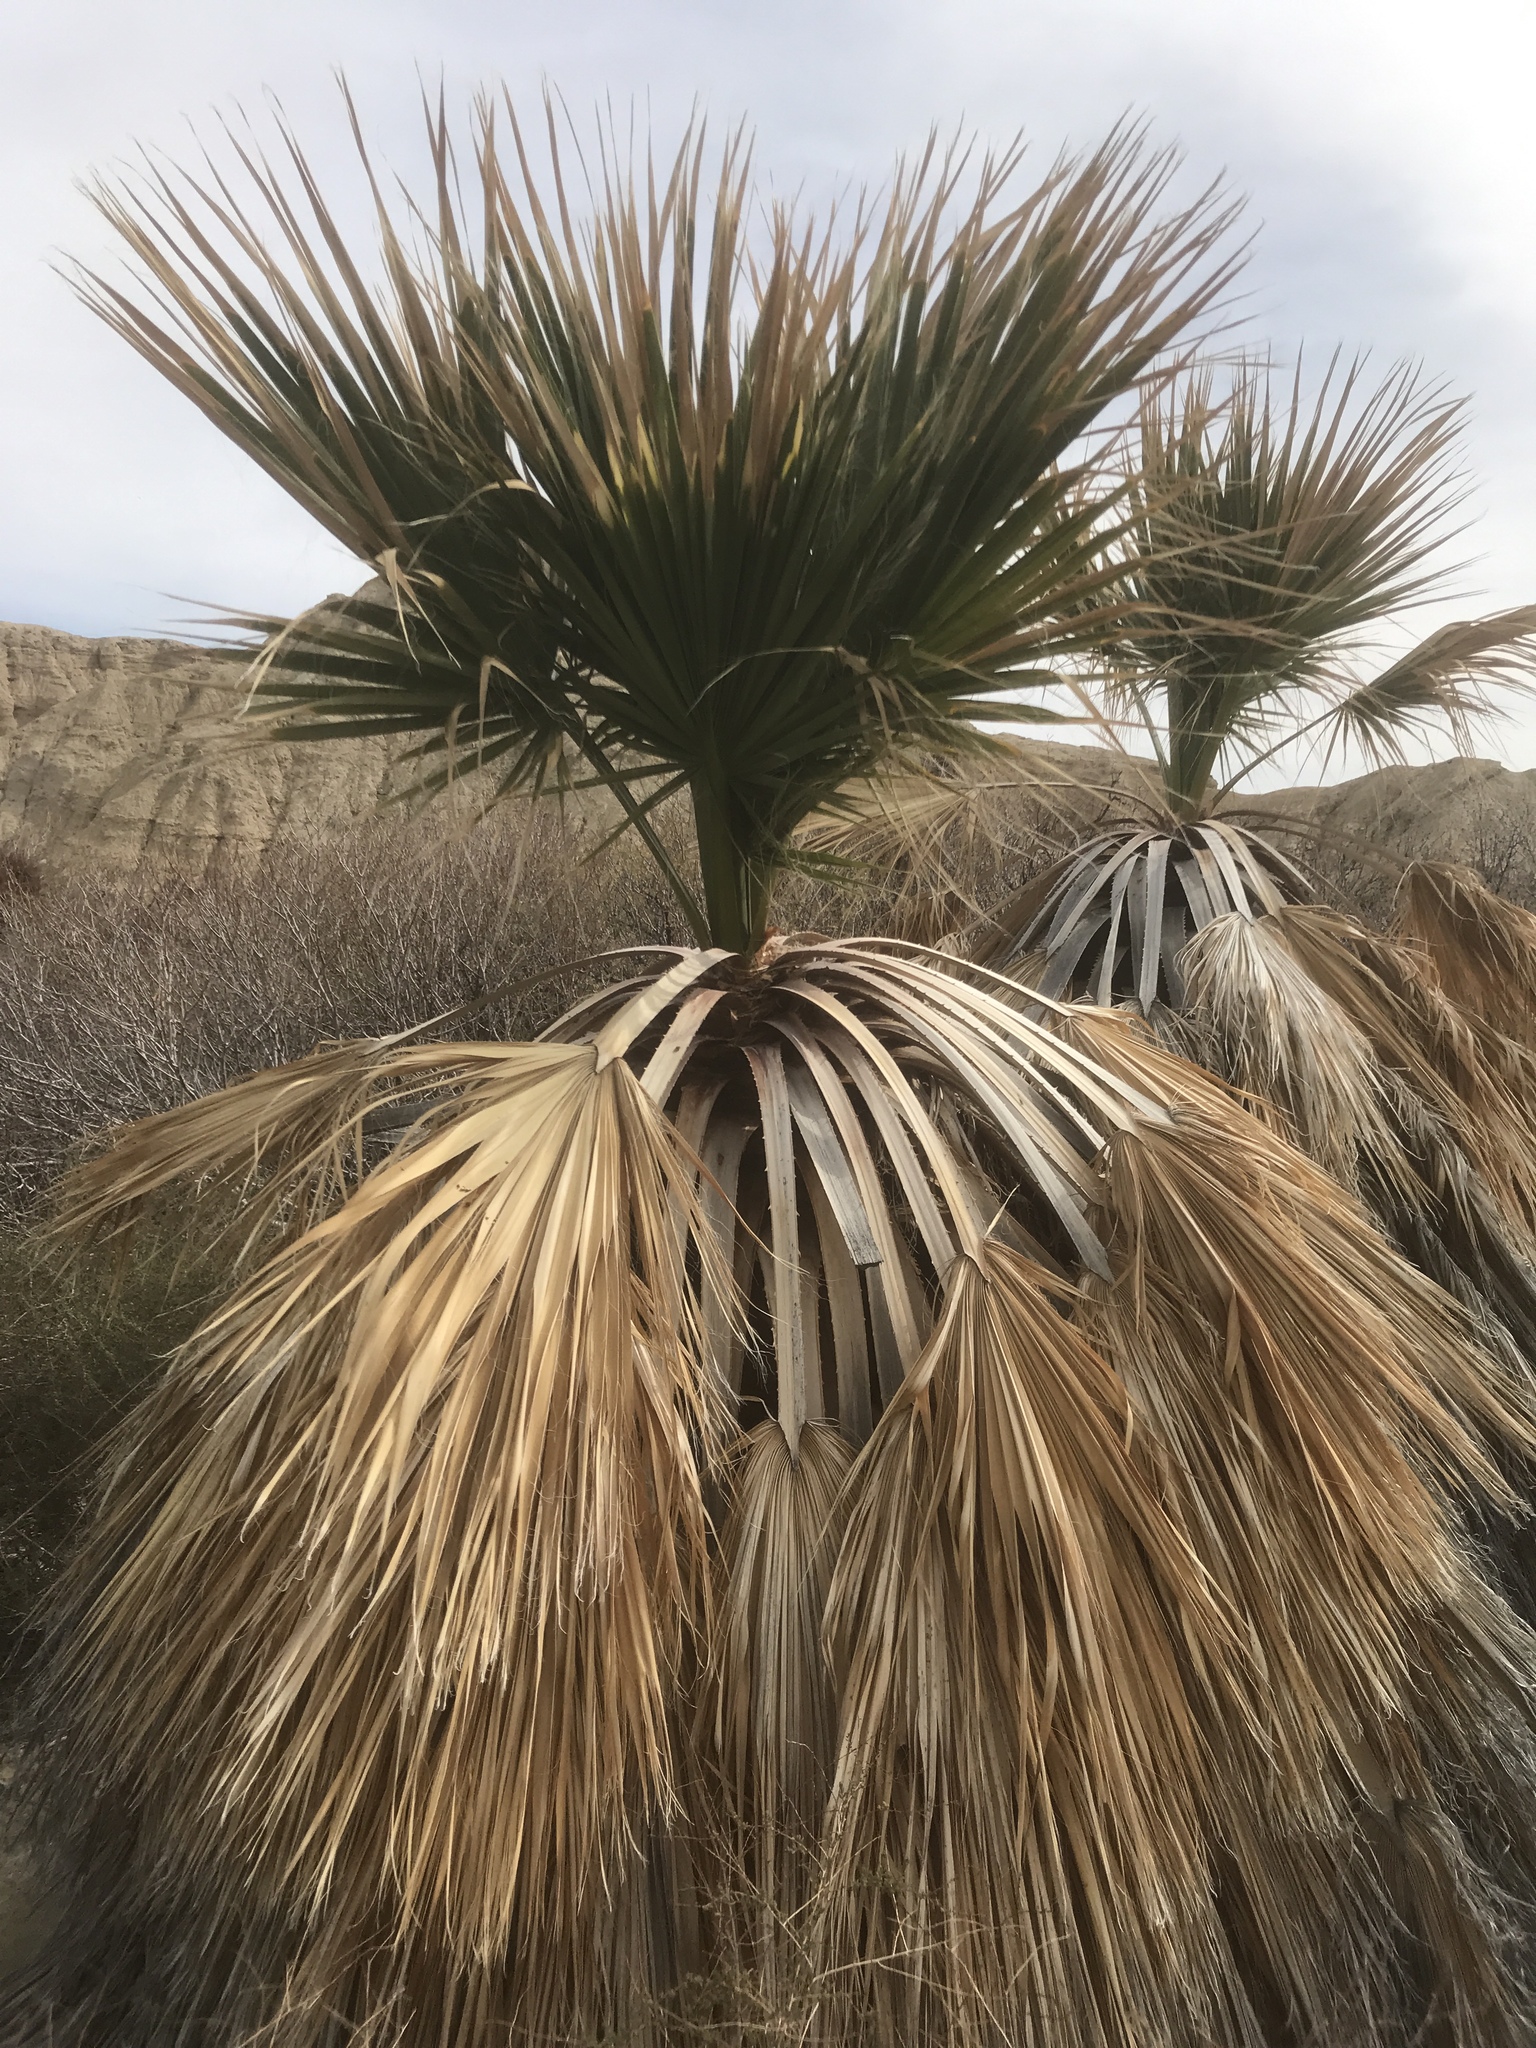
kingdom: Plantae
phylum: Tracheophyta
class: Liliopsida
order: Arecales
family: Arecaceae
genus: Washingtonia
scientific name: Washingtonia filifera
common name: California fan palm
